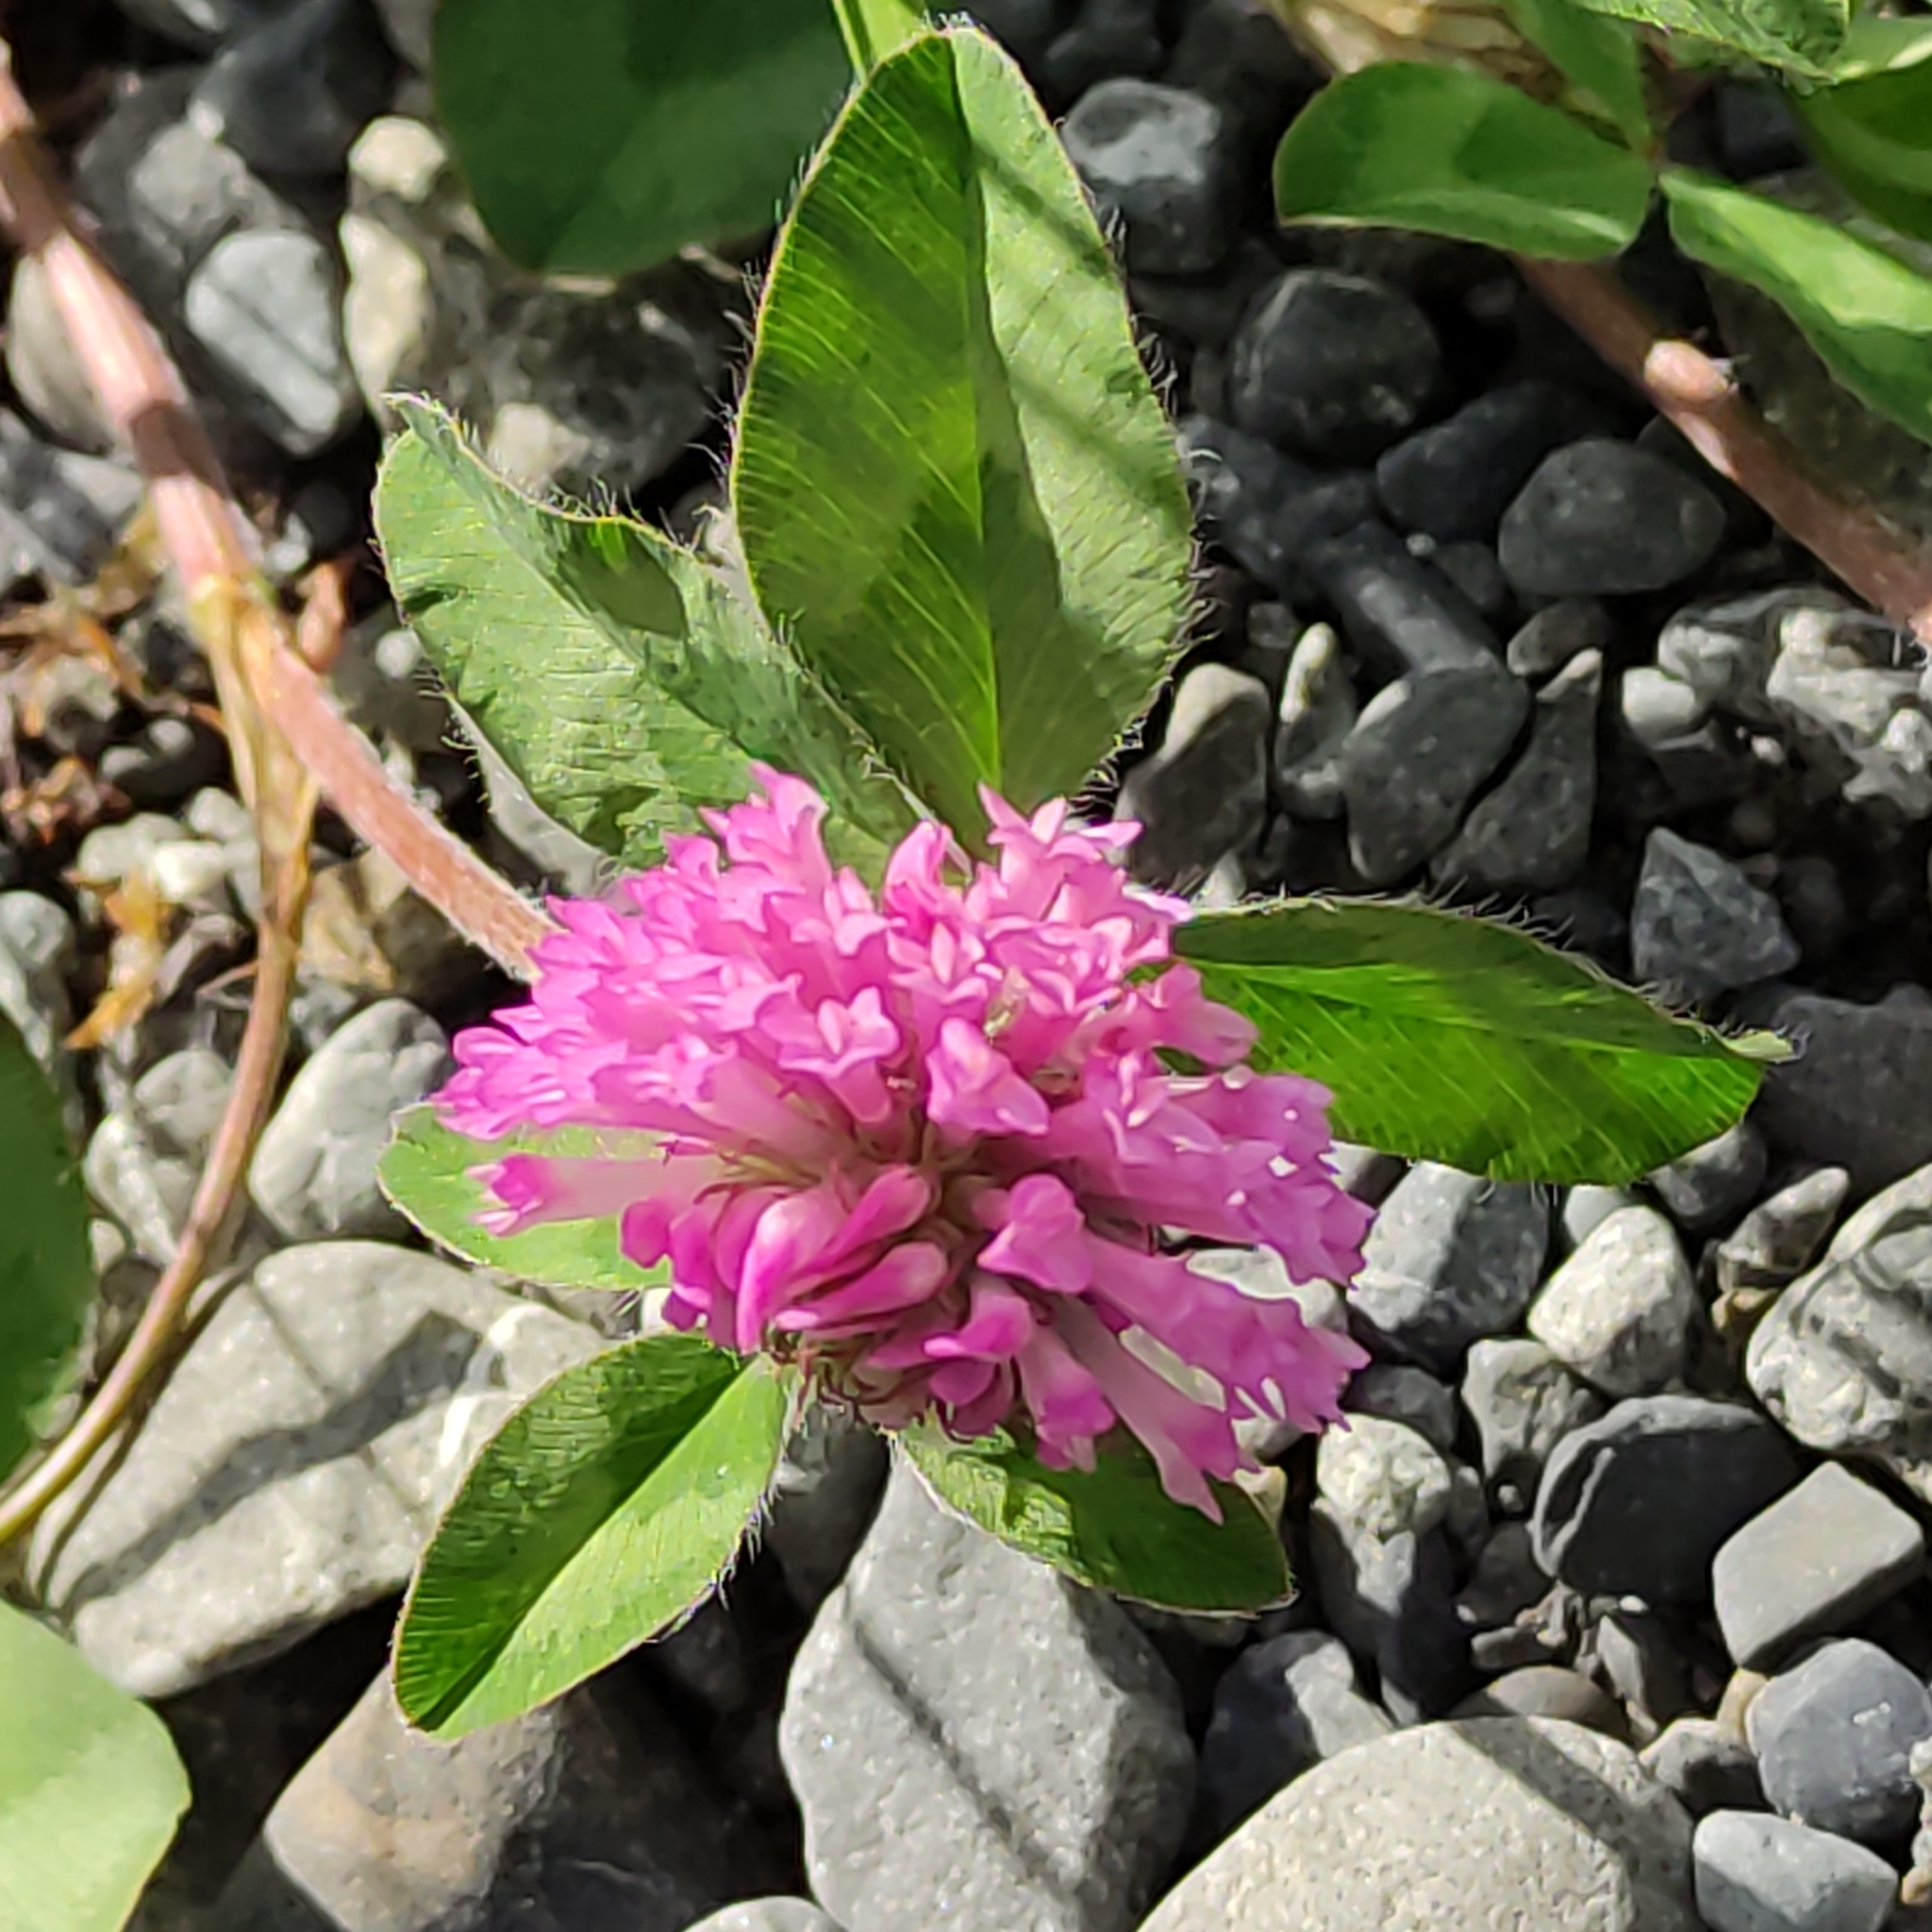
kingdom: Plantae
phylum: Tracheophyta
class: Magnoliopsida
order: Fabales
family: Fabaceae
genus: Trifolium
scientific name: Trifolium pratense
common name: Red clover
